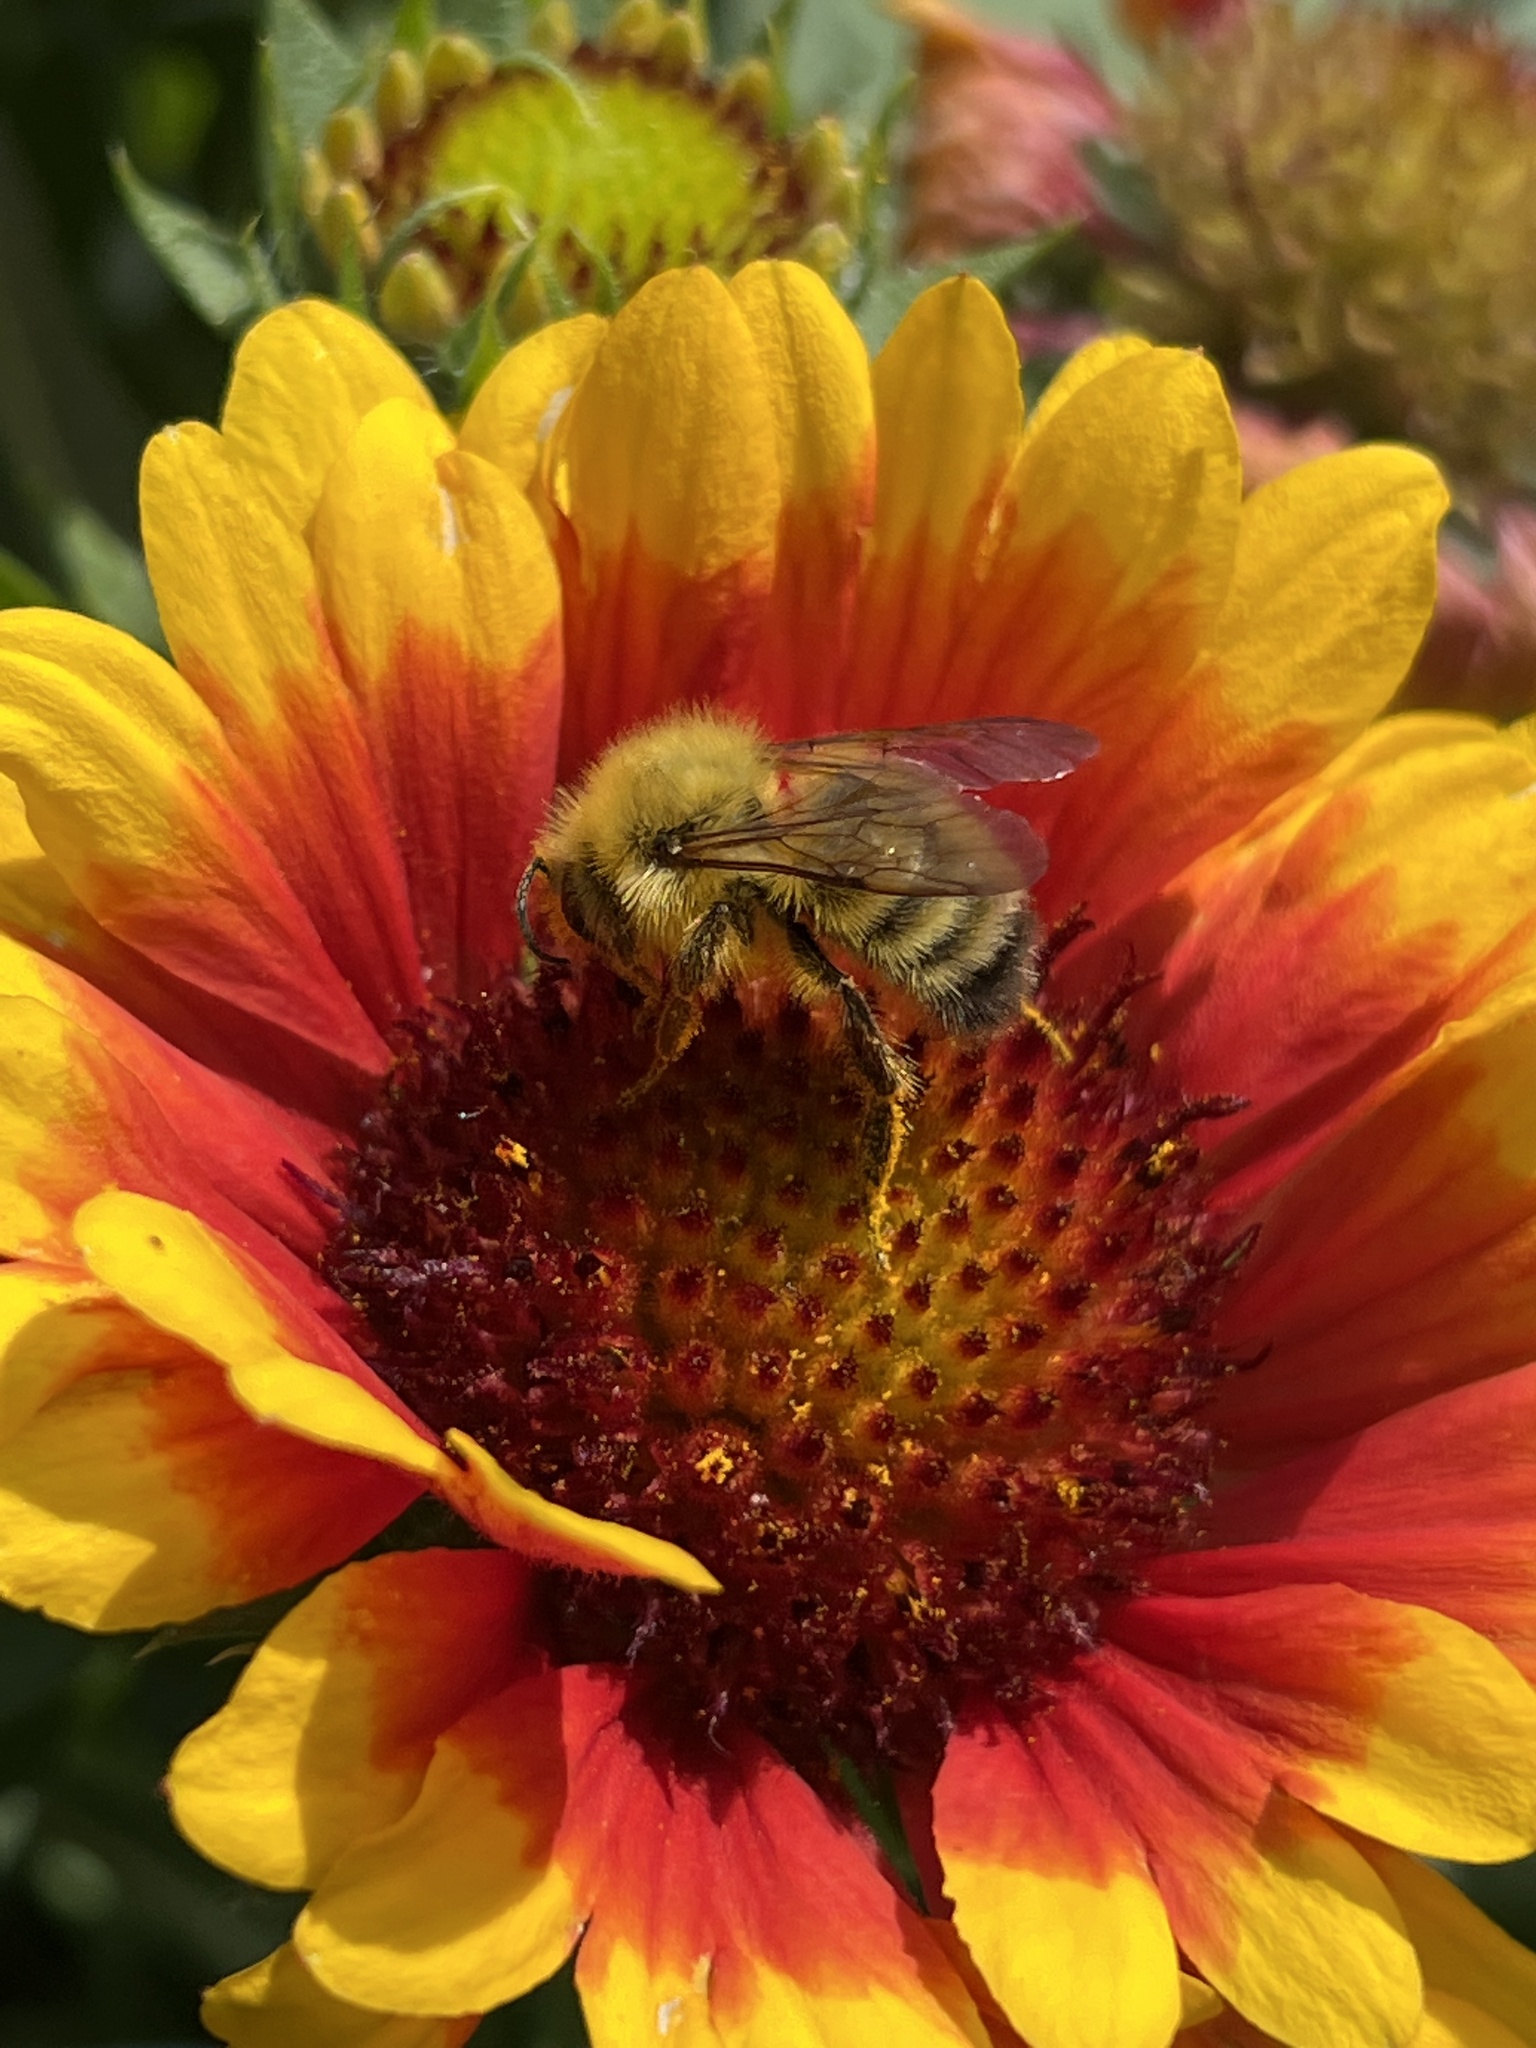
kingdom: Animalia
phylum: Arthropoda
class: Insecta
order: Hymenoptera
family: Apidae
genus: Bombus
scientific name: Bombus perplexus
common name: Confusing bumble bee
